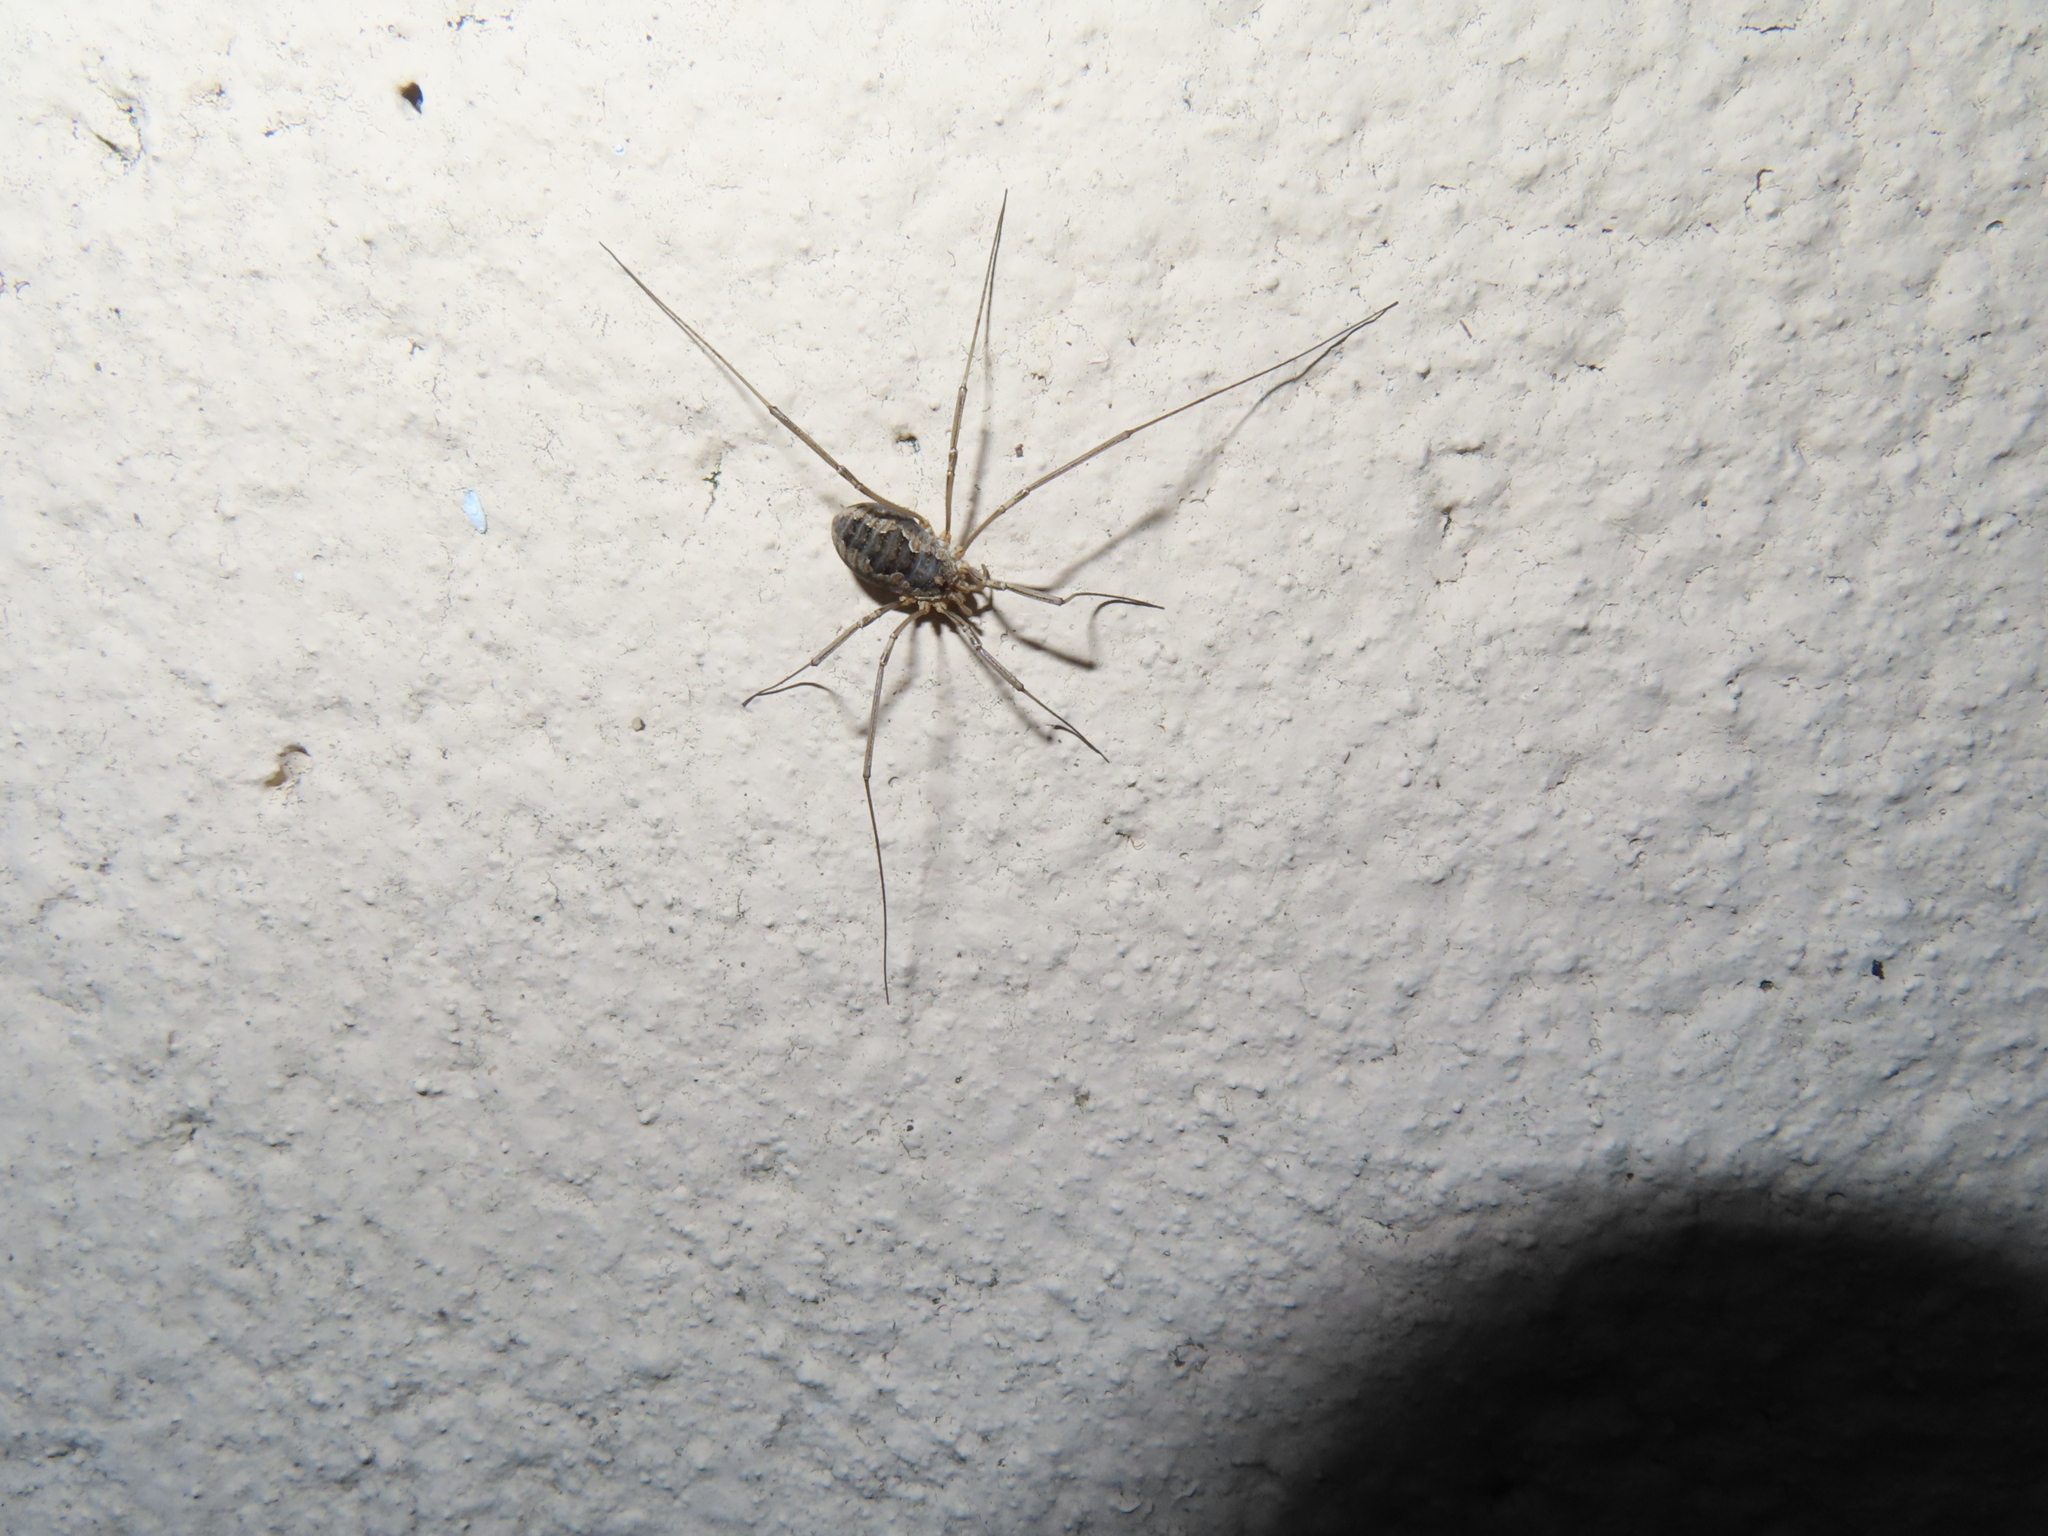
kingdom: Animalia
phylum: Arthropoda
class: Arachnida
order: Opiliones
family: Phalangiidae
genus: Phalangium
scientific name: Phalangium opilio
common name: Daddy longleg
